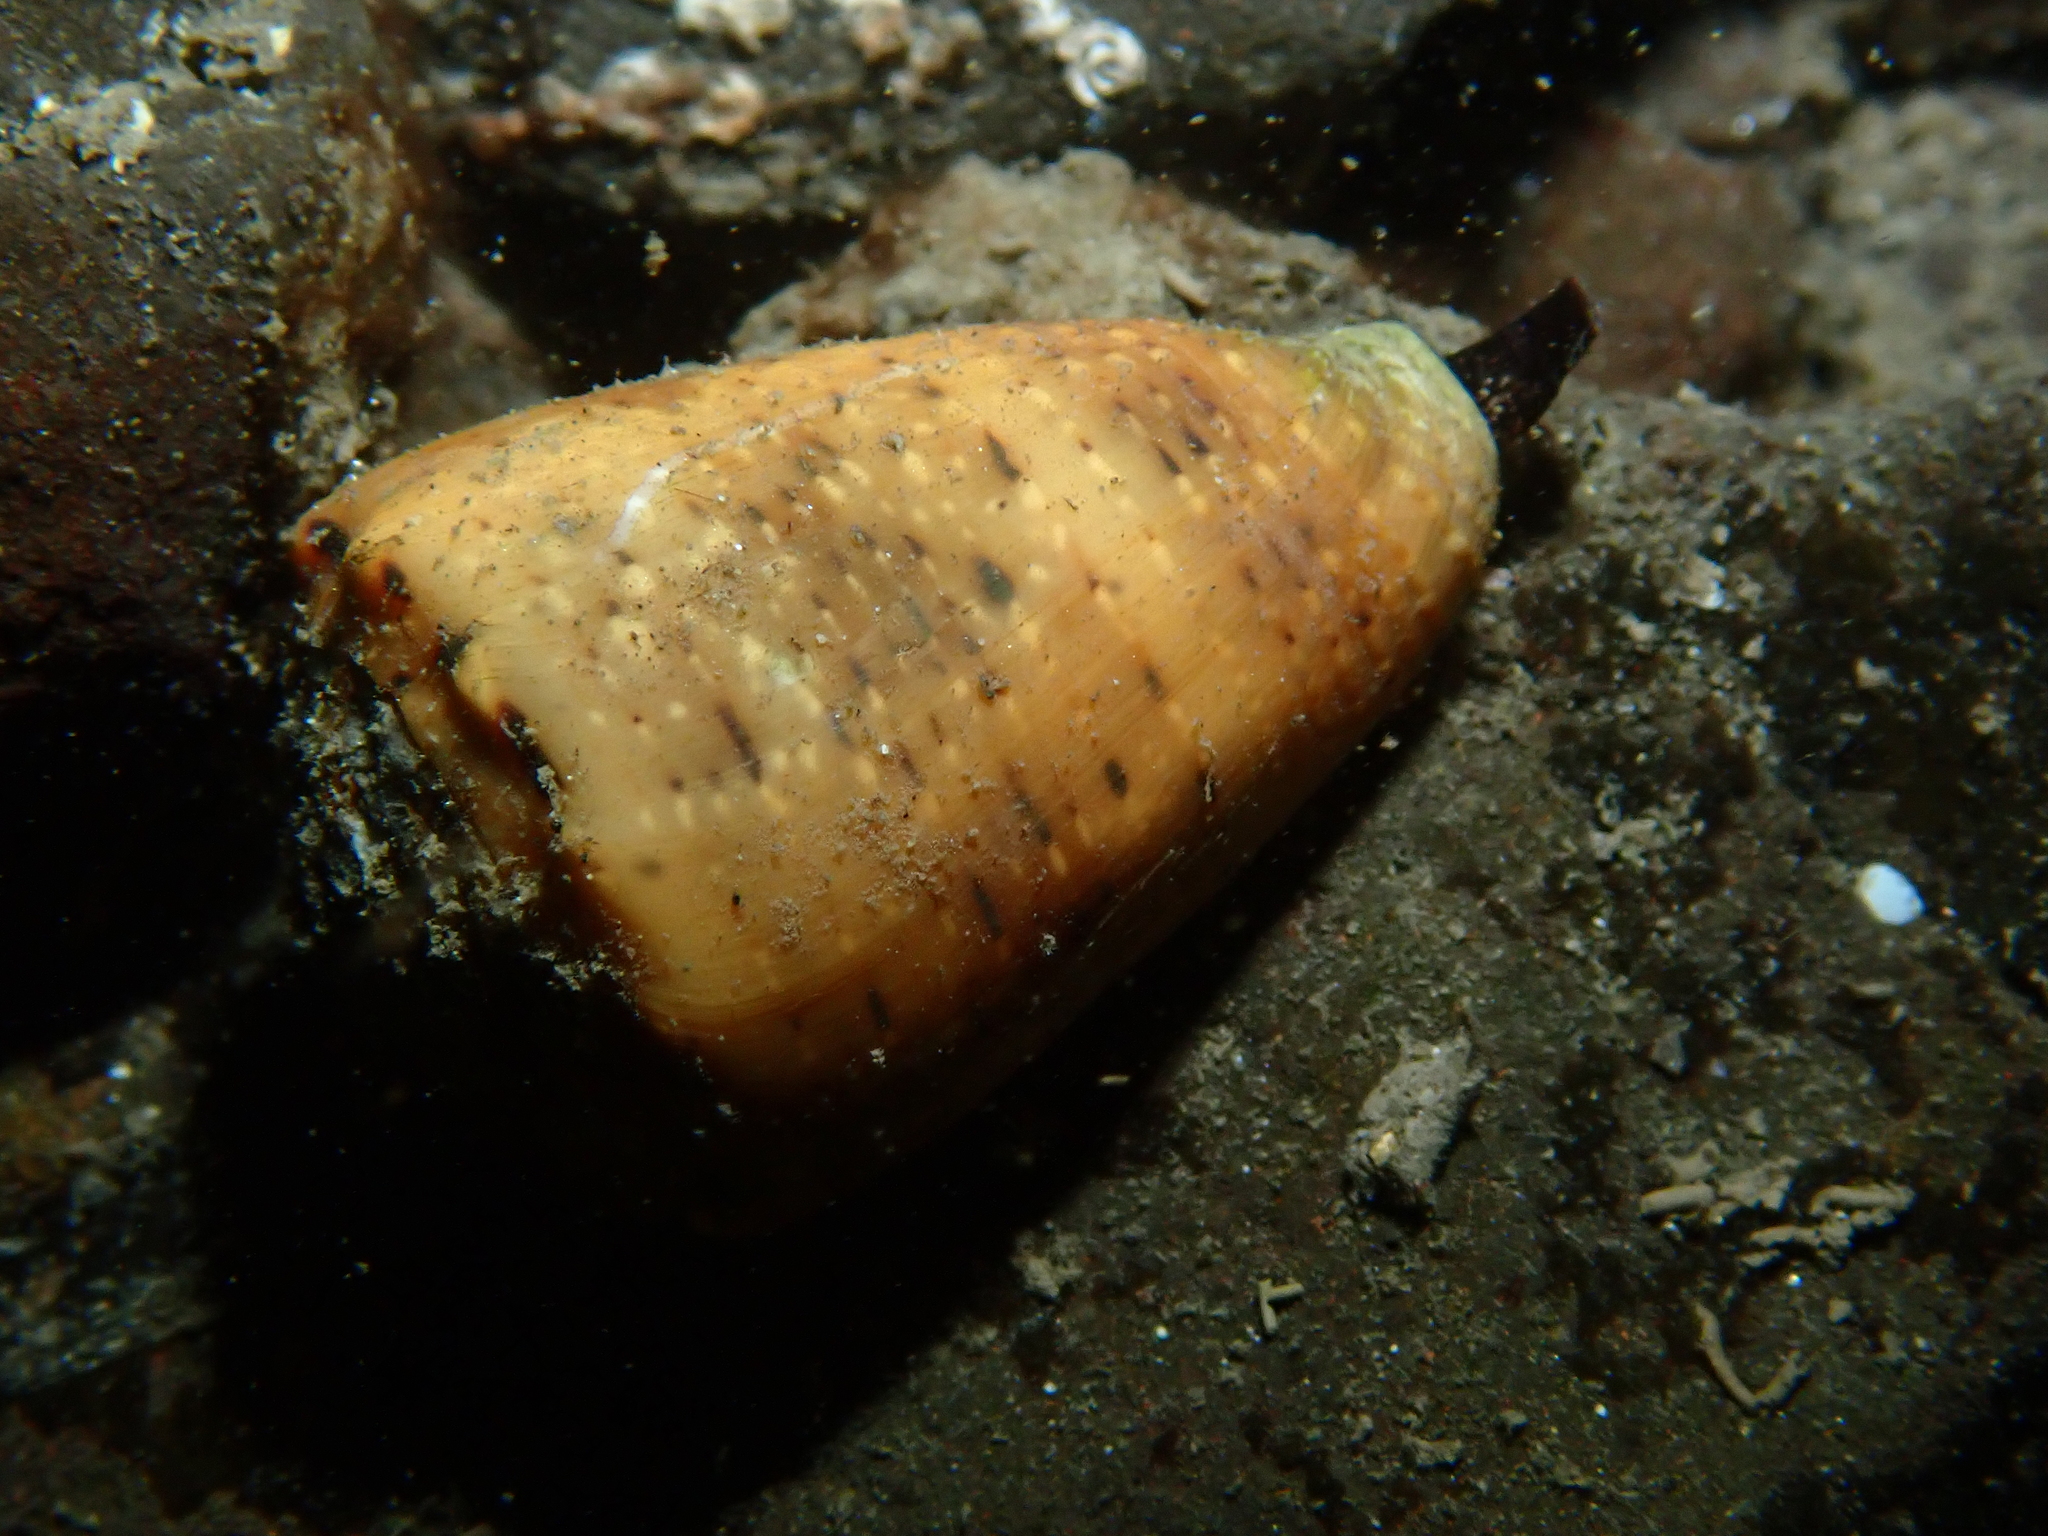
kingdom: Animalia
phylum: Mollusca
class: Gastropoda
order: Neogastropoda
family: Conidae
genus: Conus
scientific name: Conus coronatus
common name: Coronated cone
